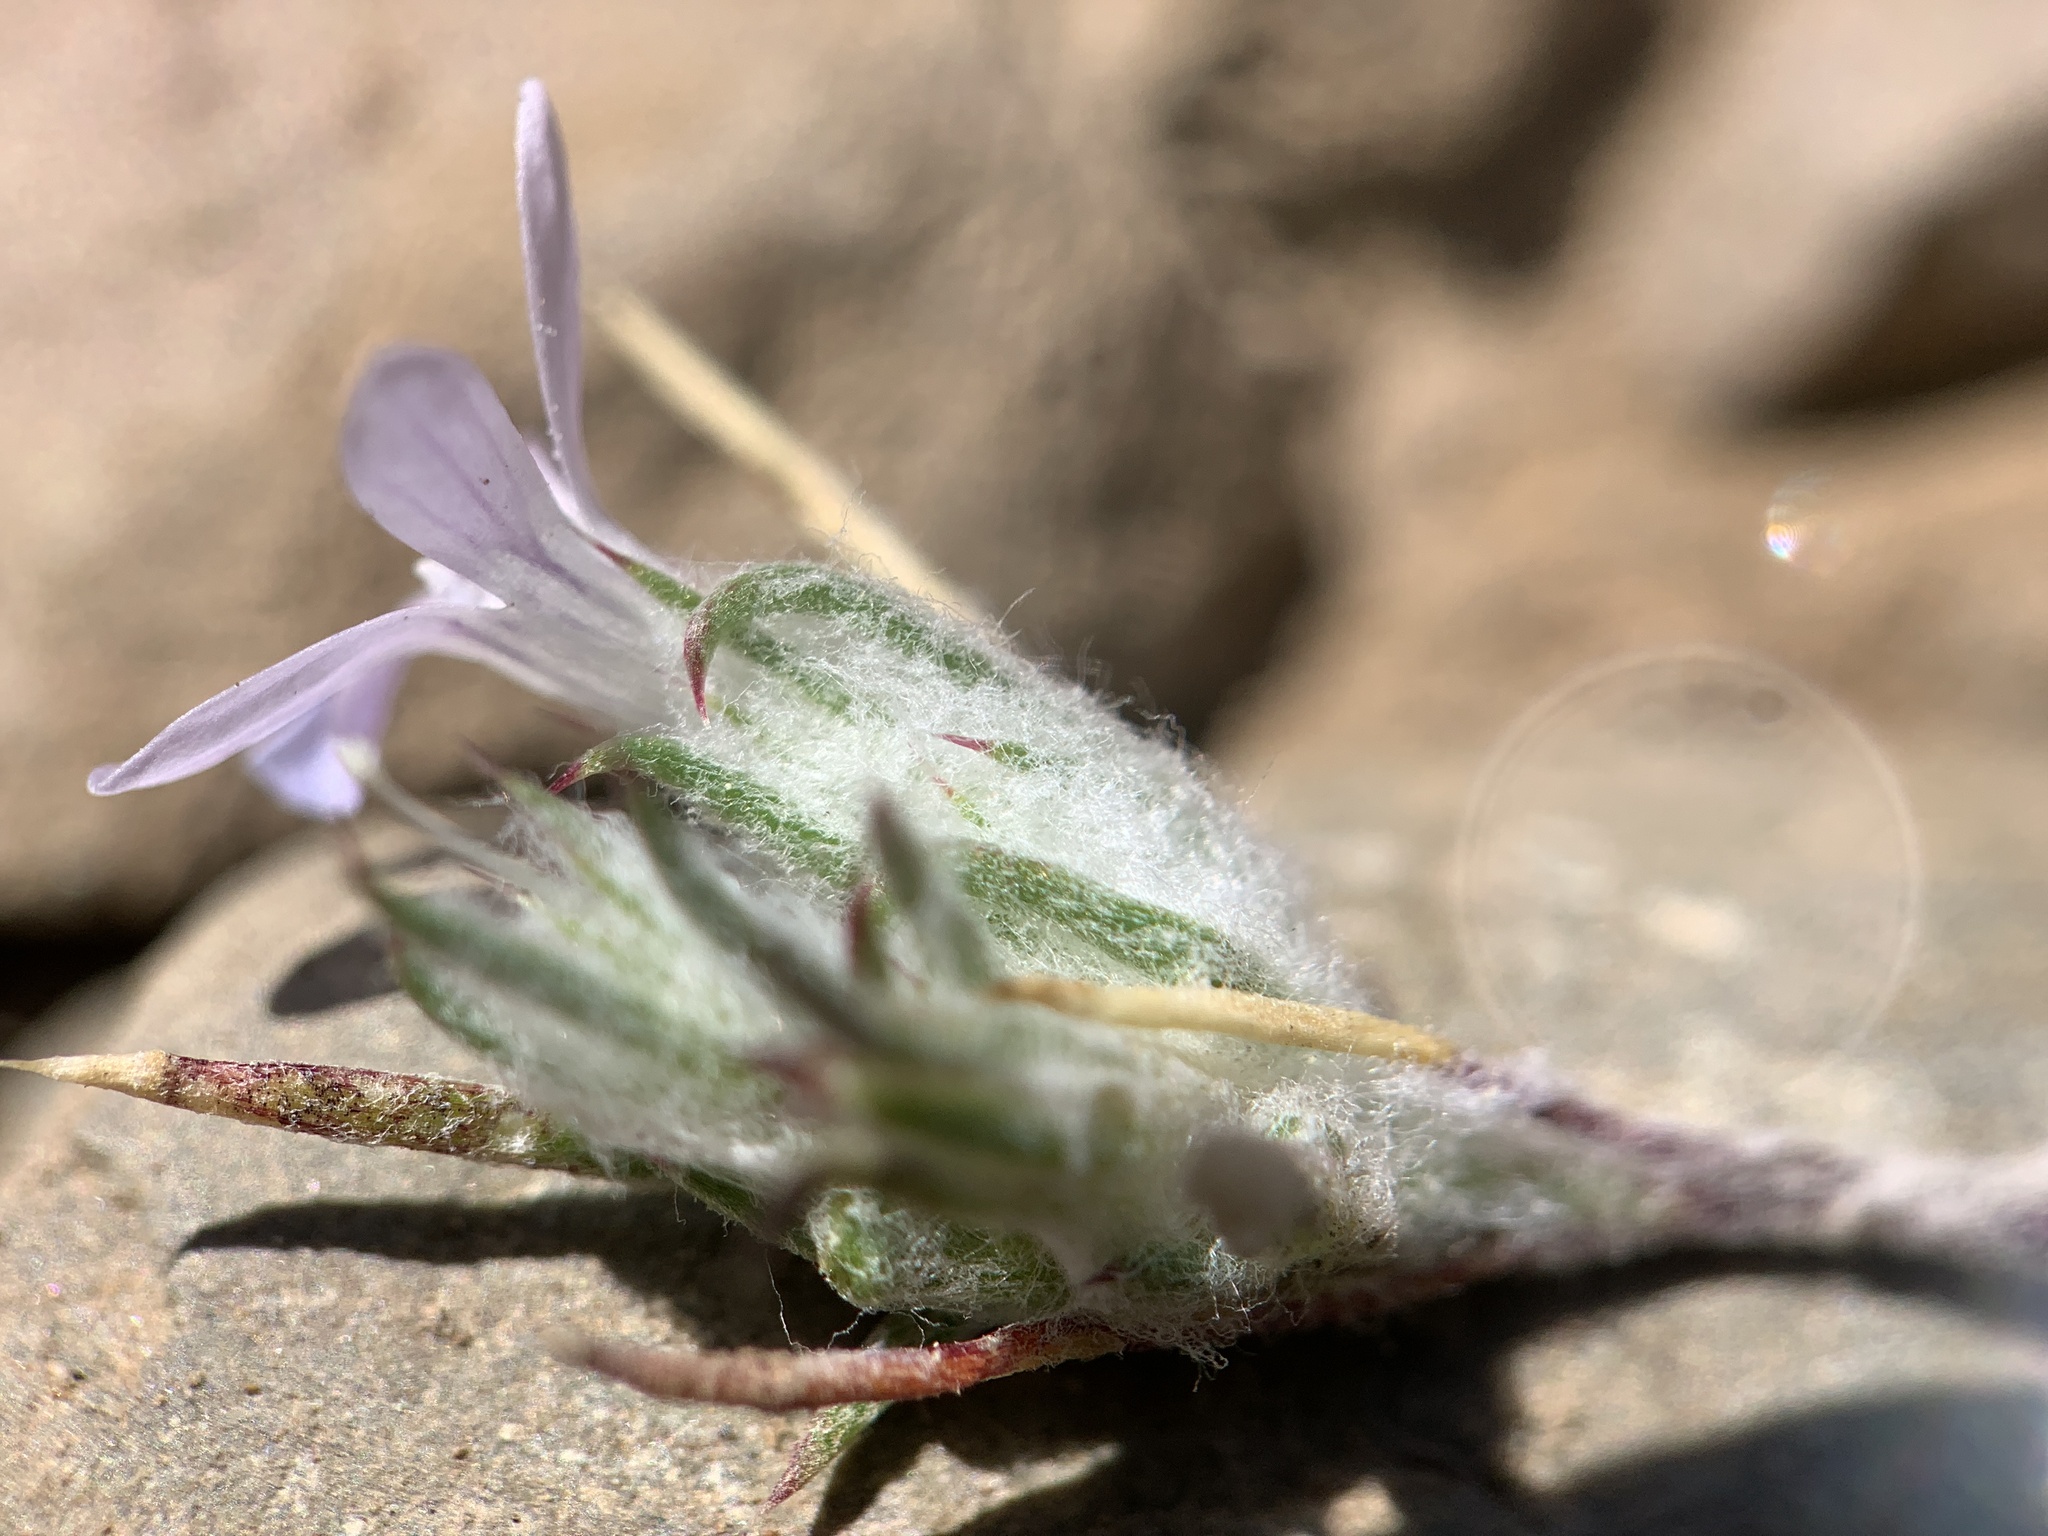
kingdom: Plantae
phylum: Tracheophyta
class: Magnoliopsida
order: Ericales
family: Polemoniaceae
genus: Eriastrum
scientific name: Eriastrum wilcoxii
